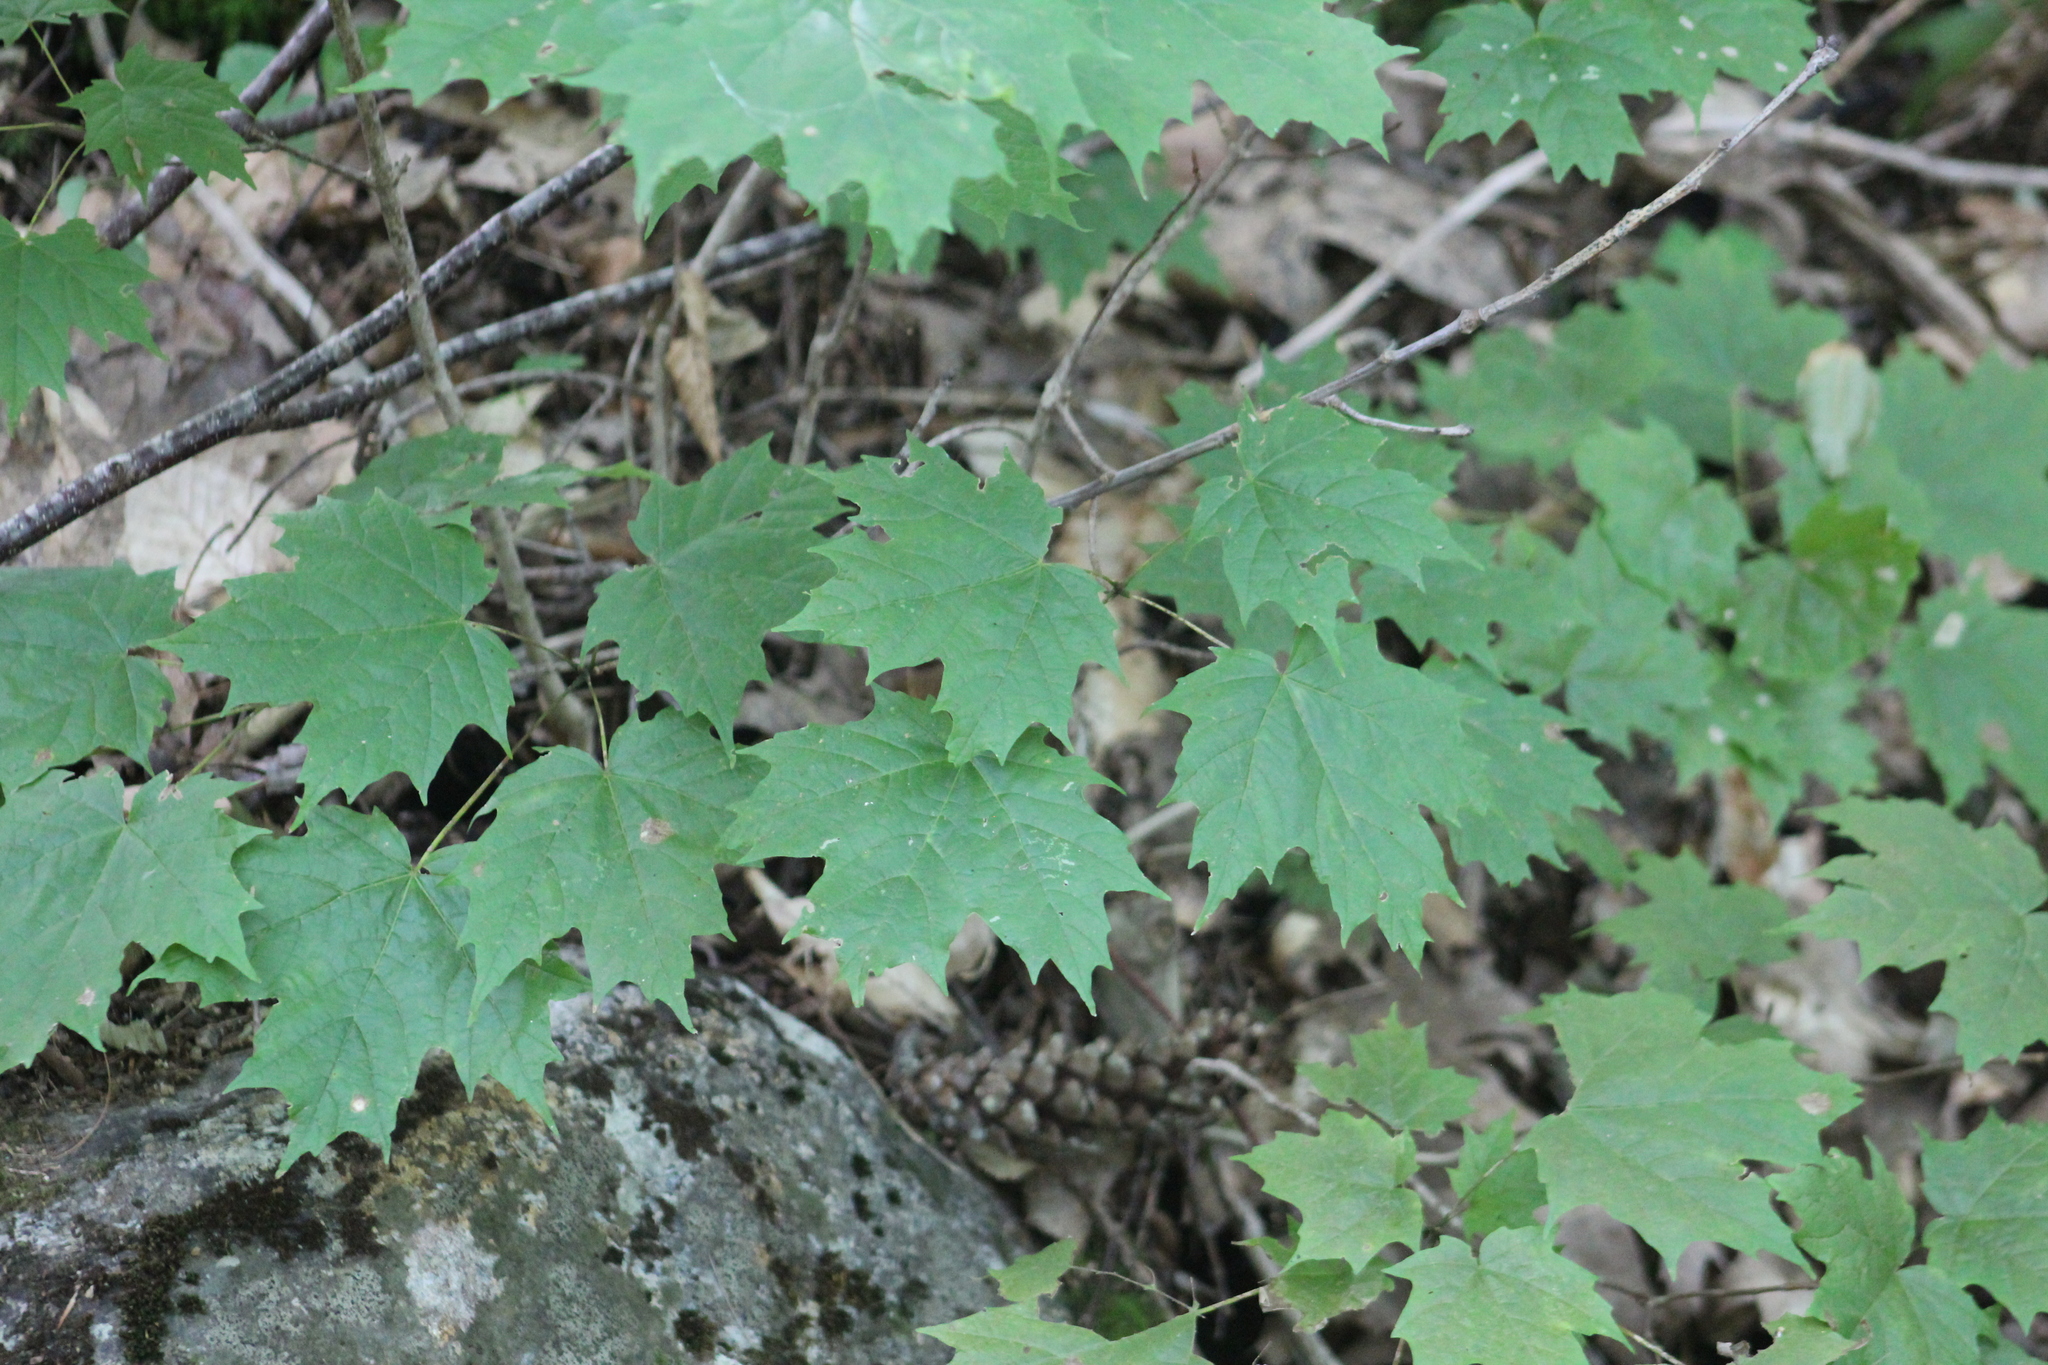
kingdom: Plantae
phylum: Tracheophyta
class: Magnoliopsida
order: Sapindales
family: Sapindaceae
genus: Acer
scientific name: Acer saccharum
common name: Sugar maple
